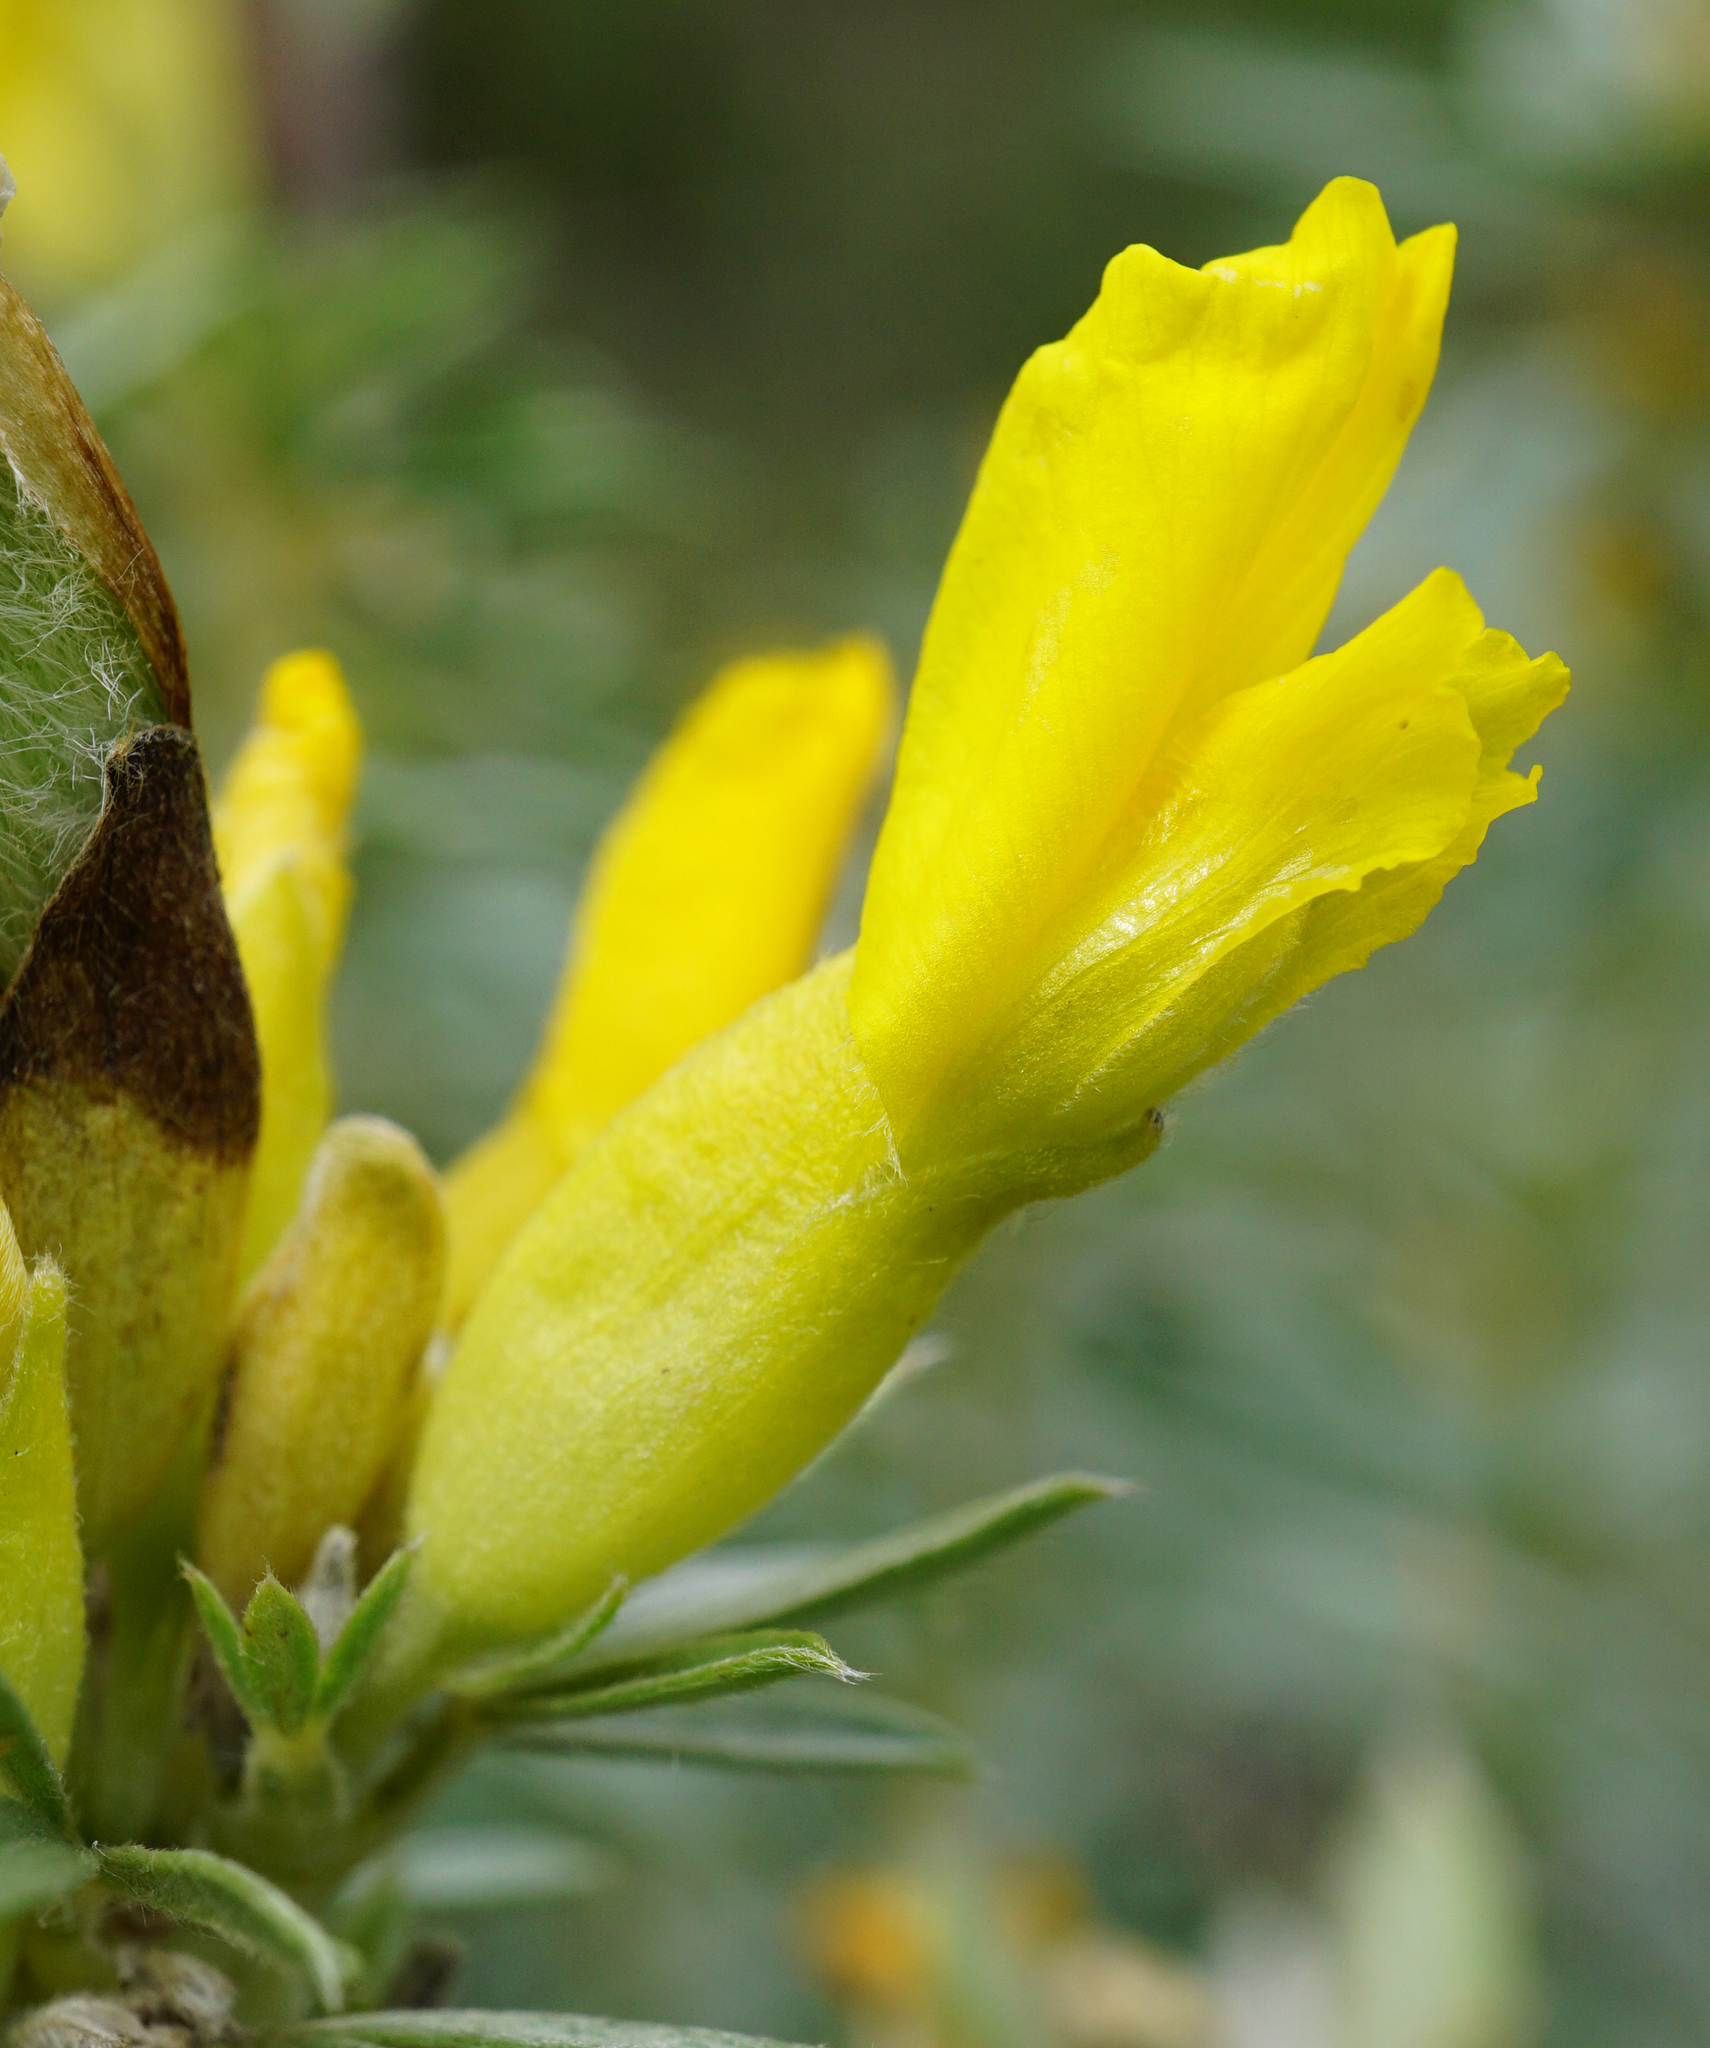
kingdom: Plantae
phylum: Tracheophyta
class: Magnoliopsida
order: Fabales
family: Fabaceae
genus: Chamaecytisus
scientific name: Chamaecytisus austriacus
